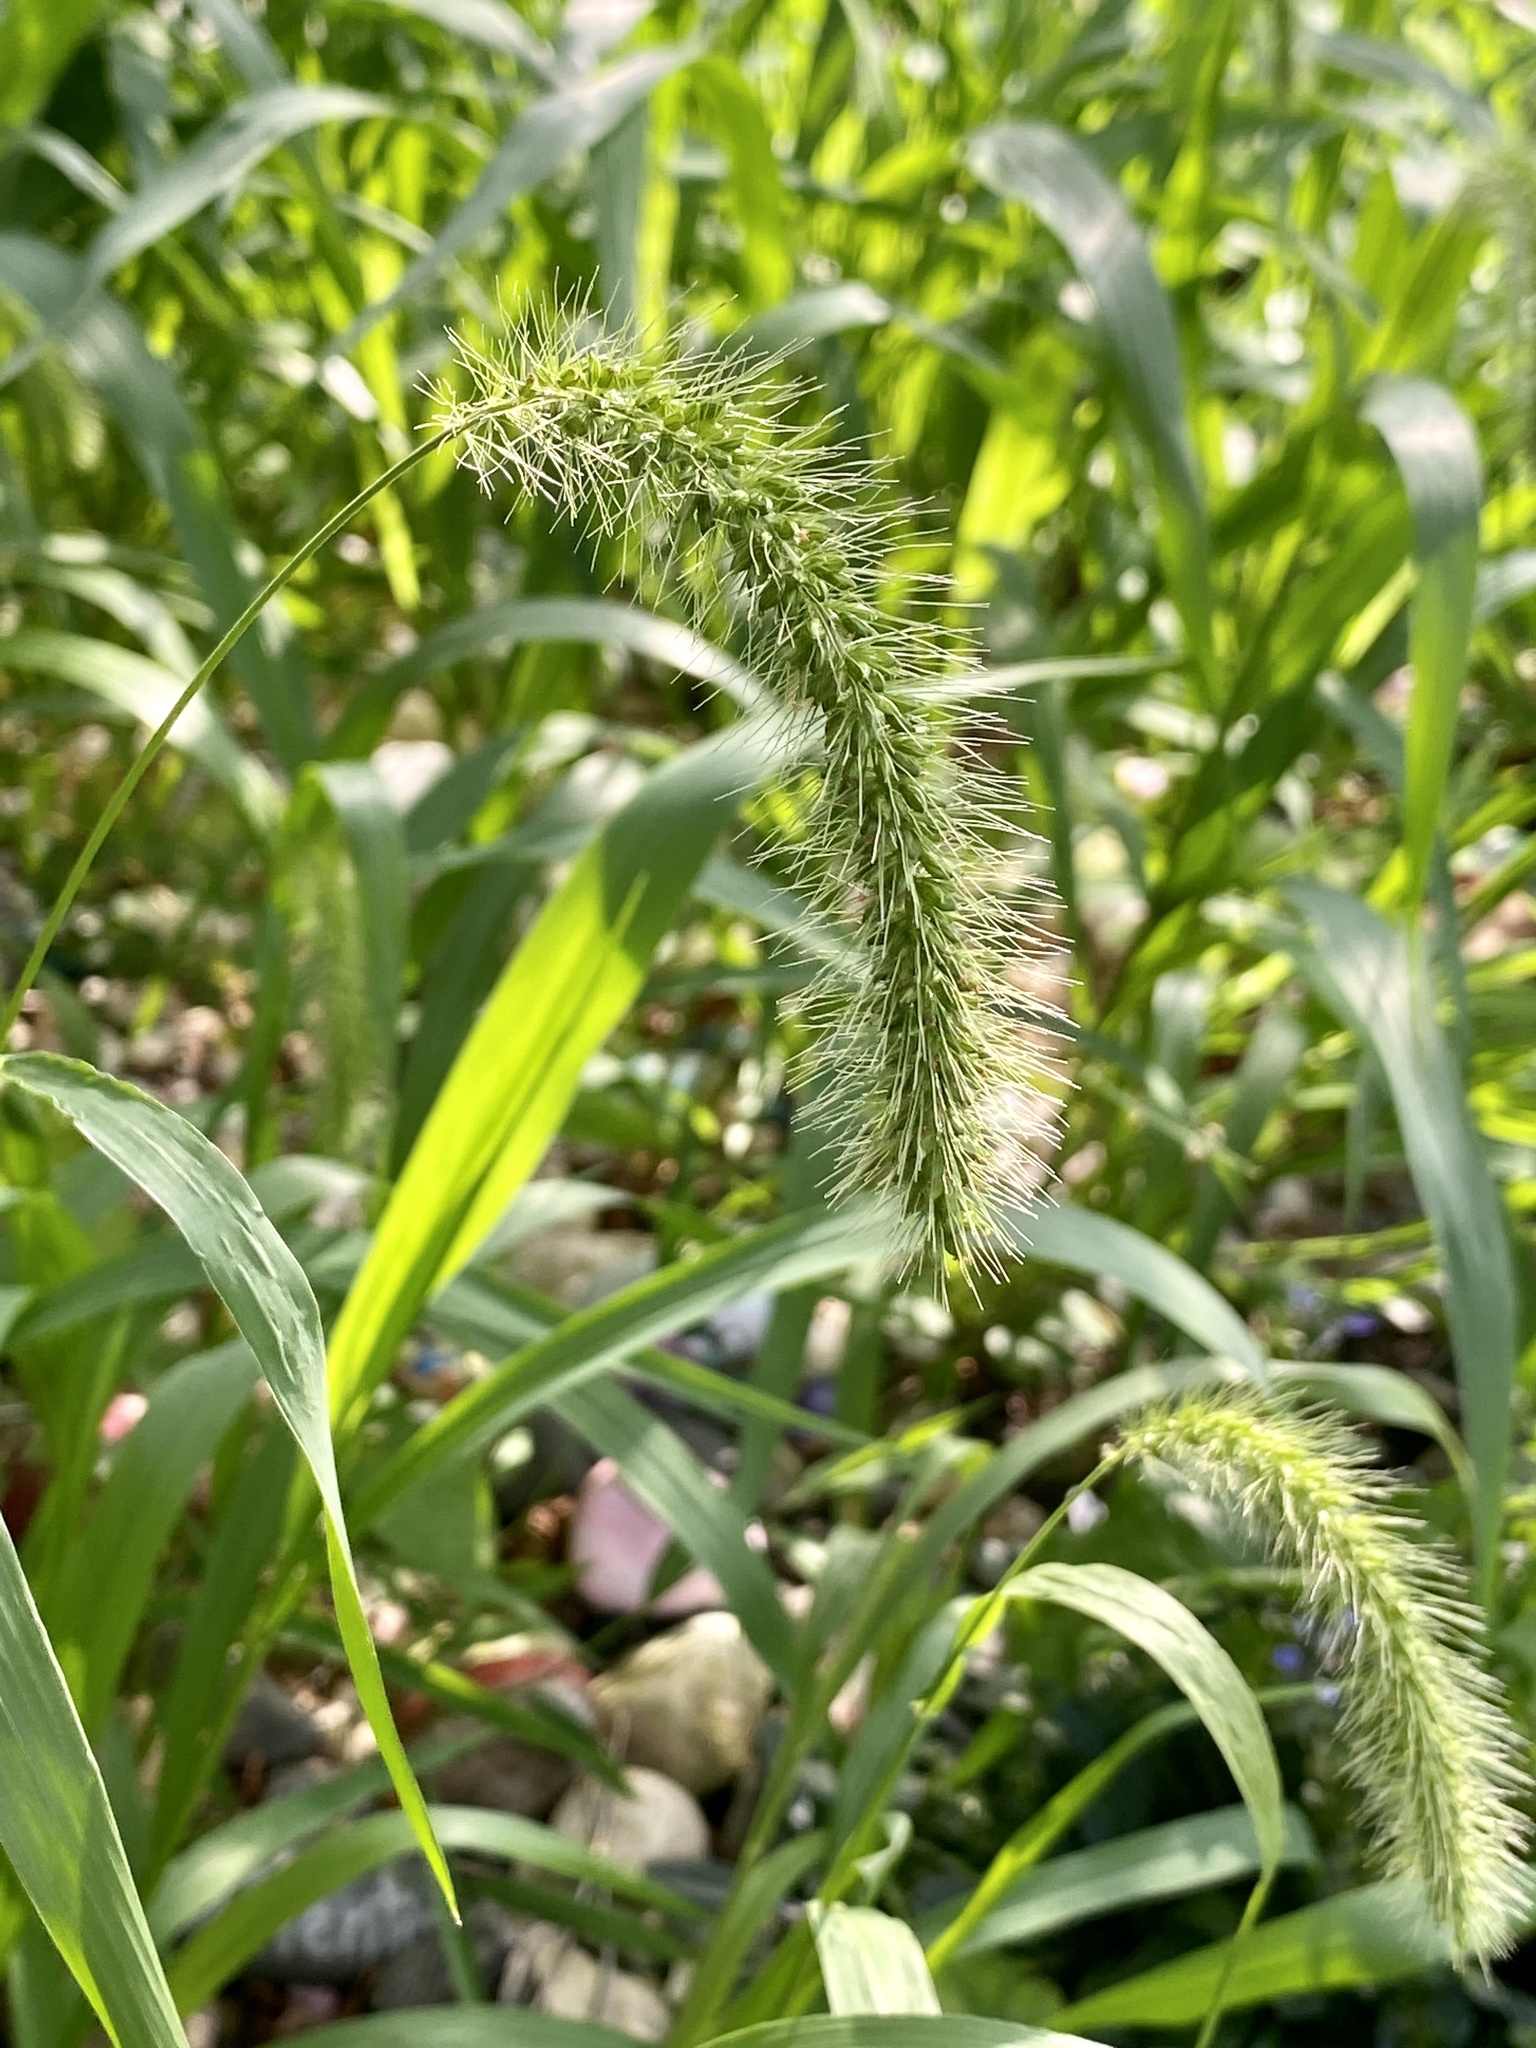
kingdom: Plantae
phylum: Tracheophyta
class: Liliopsida
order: Poales
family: Poaceae
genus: Setaria
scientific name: Setaria faberi
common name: Nodding bristle-grass
